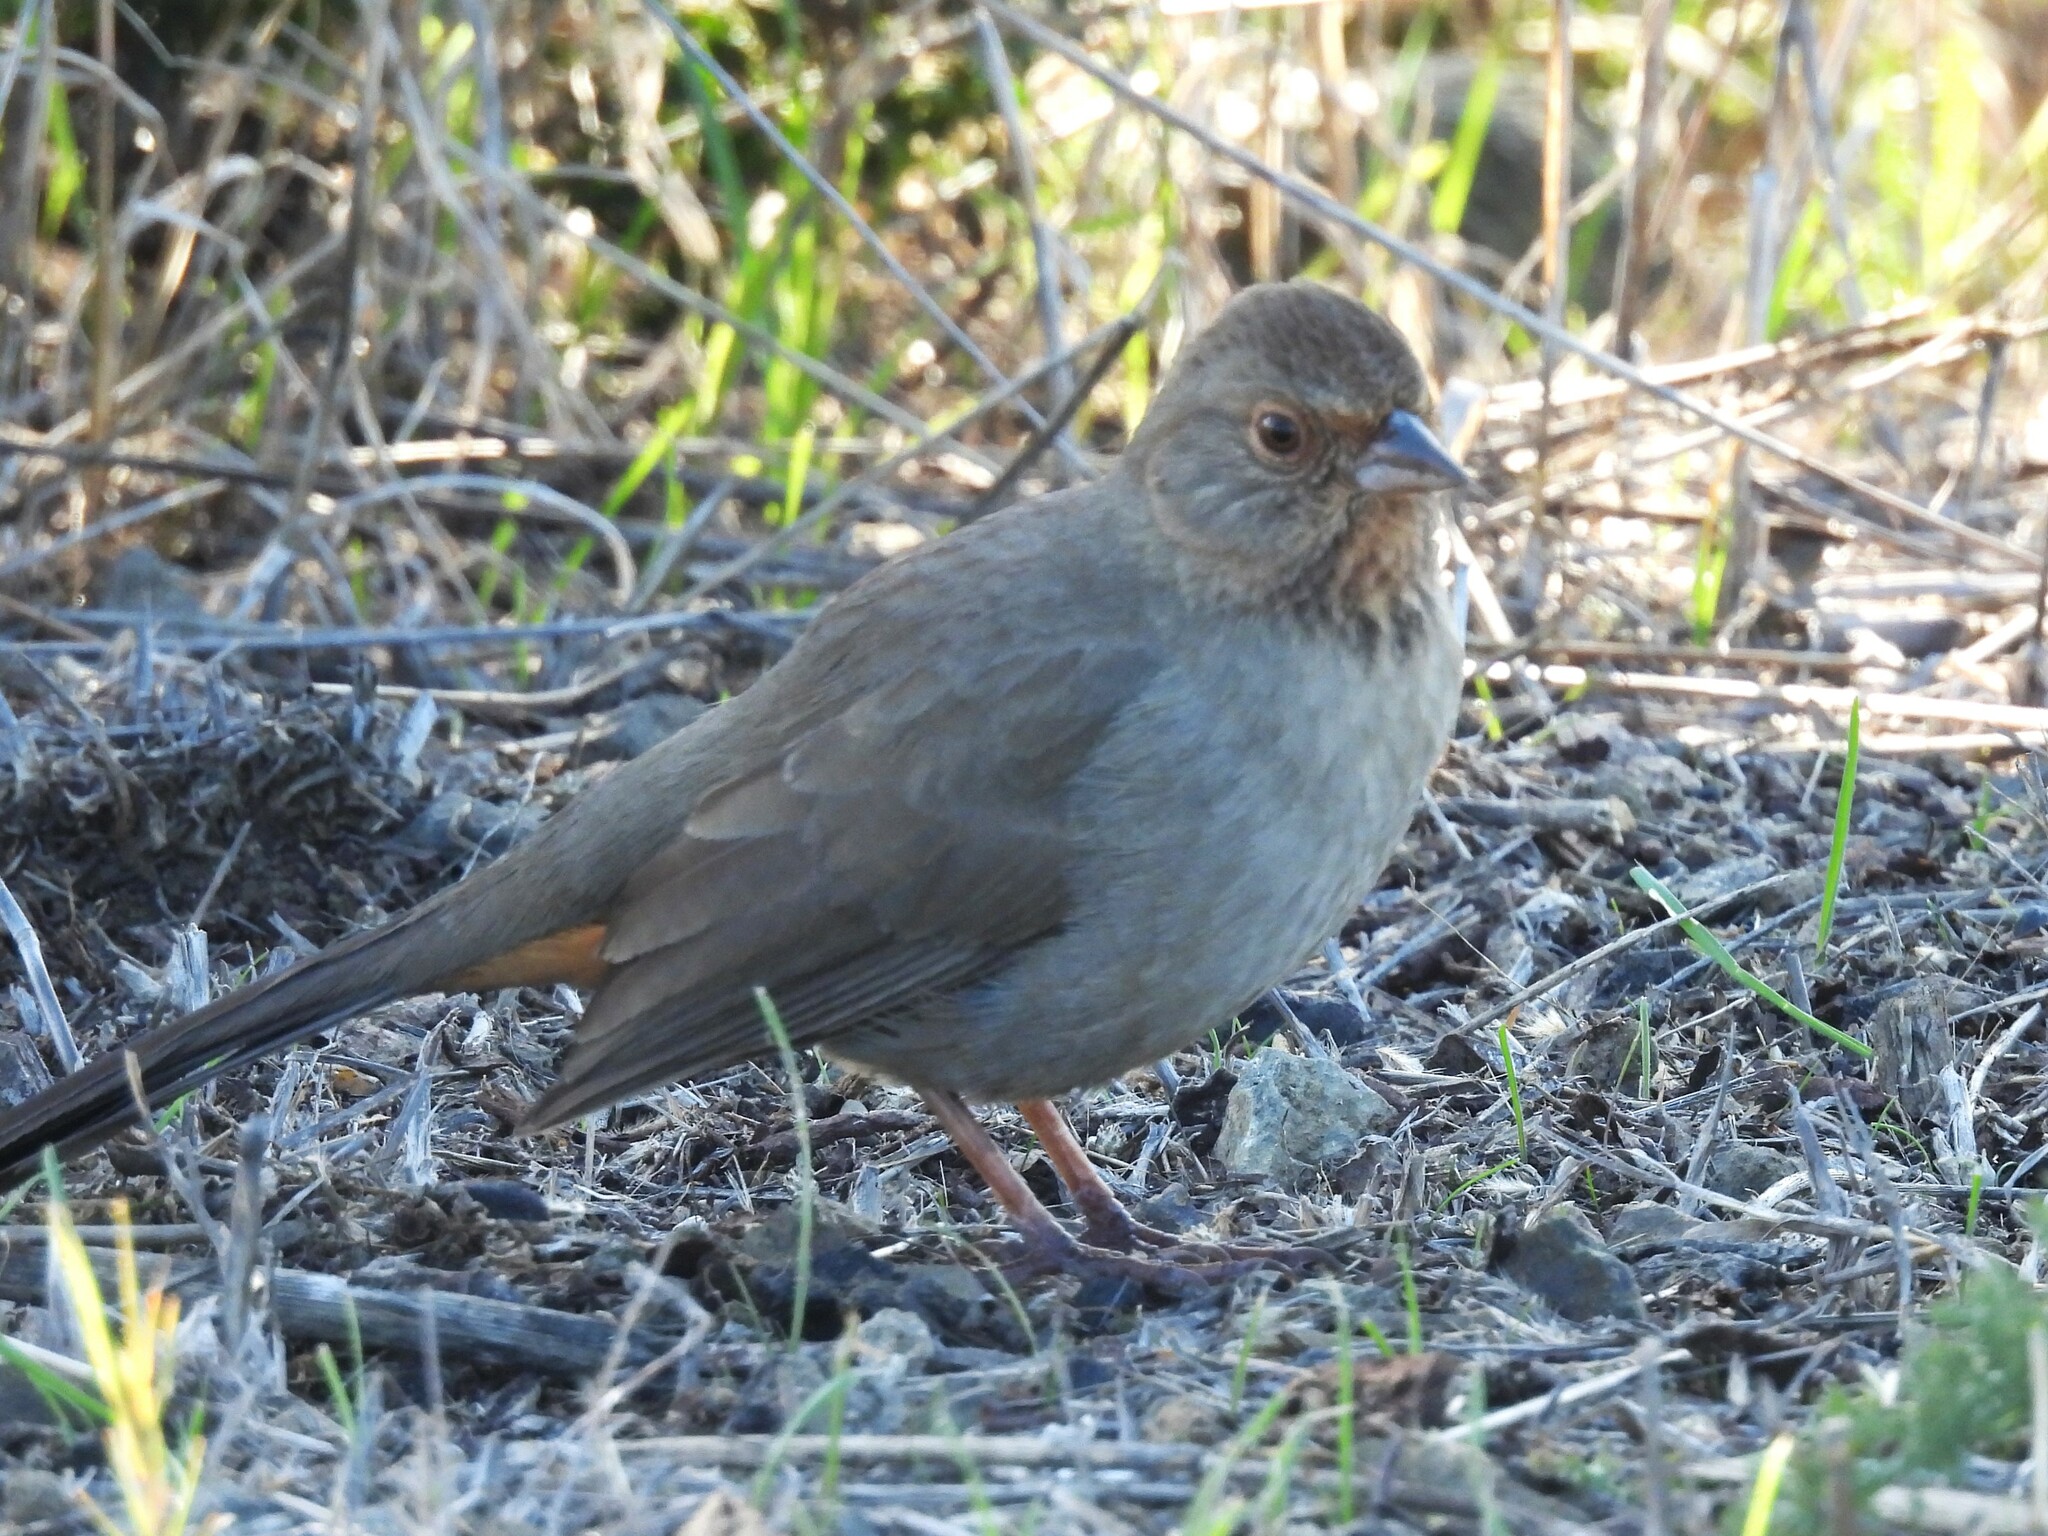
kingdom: Animalia
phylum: Chordata
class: Aves
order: Passeriformes
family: Passerellidae
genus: Melozone
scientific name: Melozone crissalis
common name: California towhee
